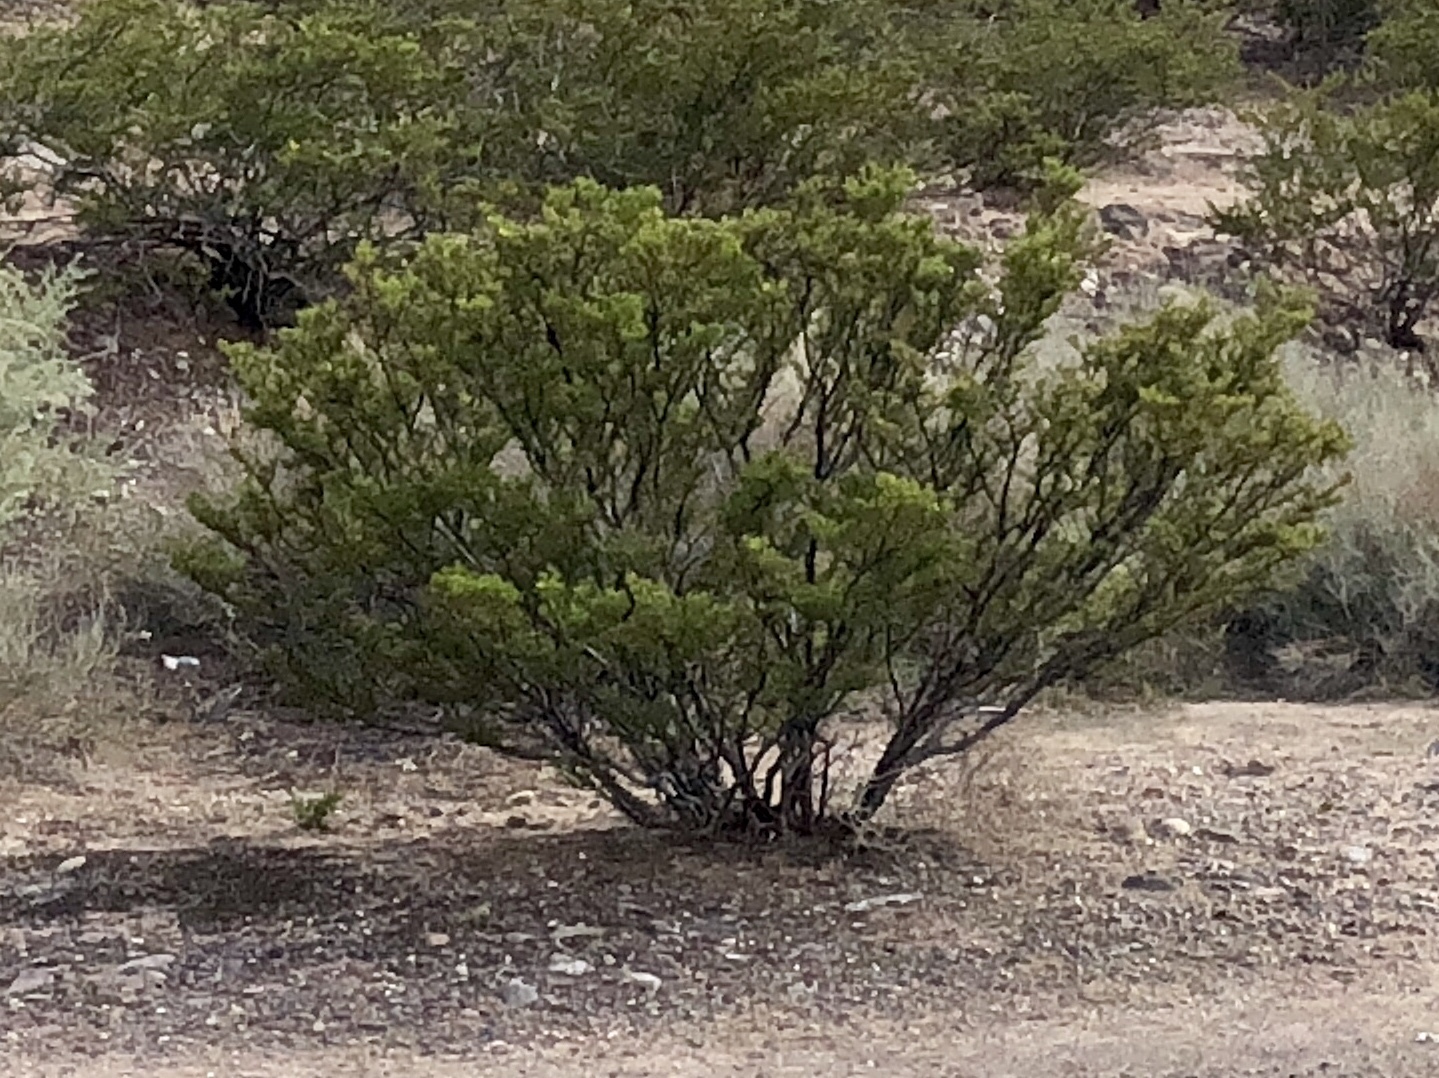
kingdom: Plantae
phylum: Tracheophyta
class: Magnoliopsida
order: Zygophyllales
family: Zygophyllaceae
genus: Larrea
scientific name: Larrea tridentata
